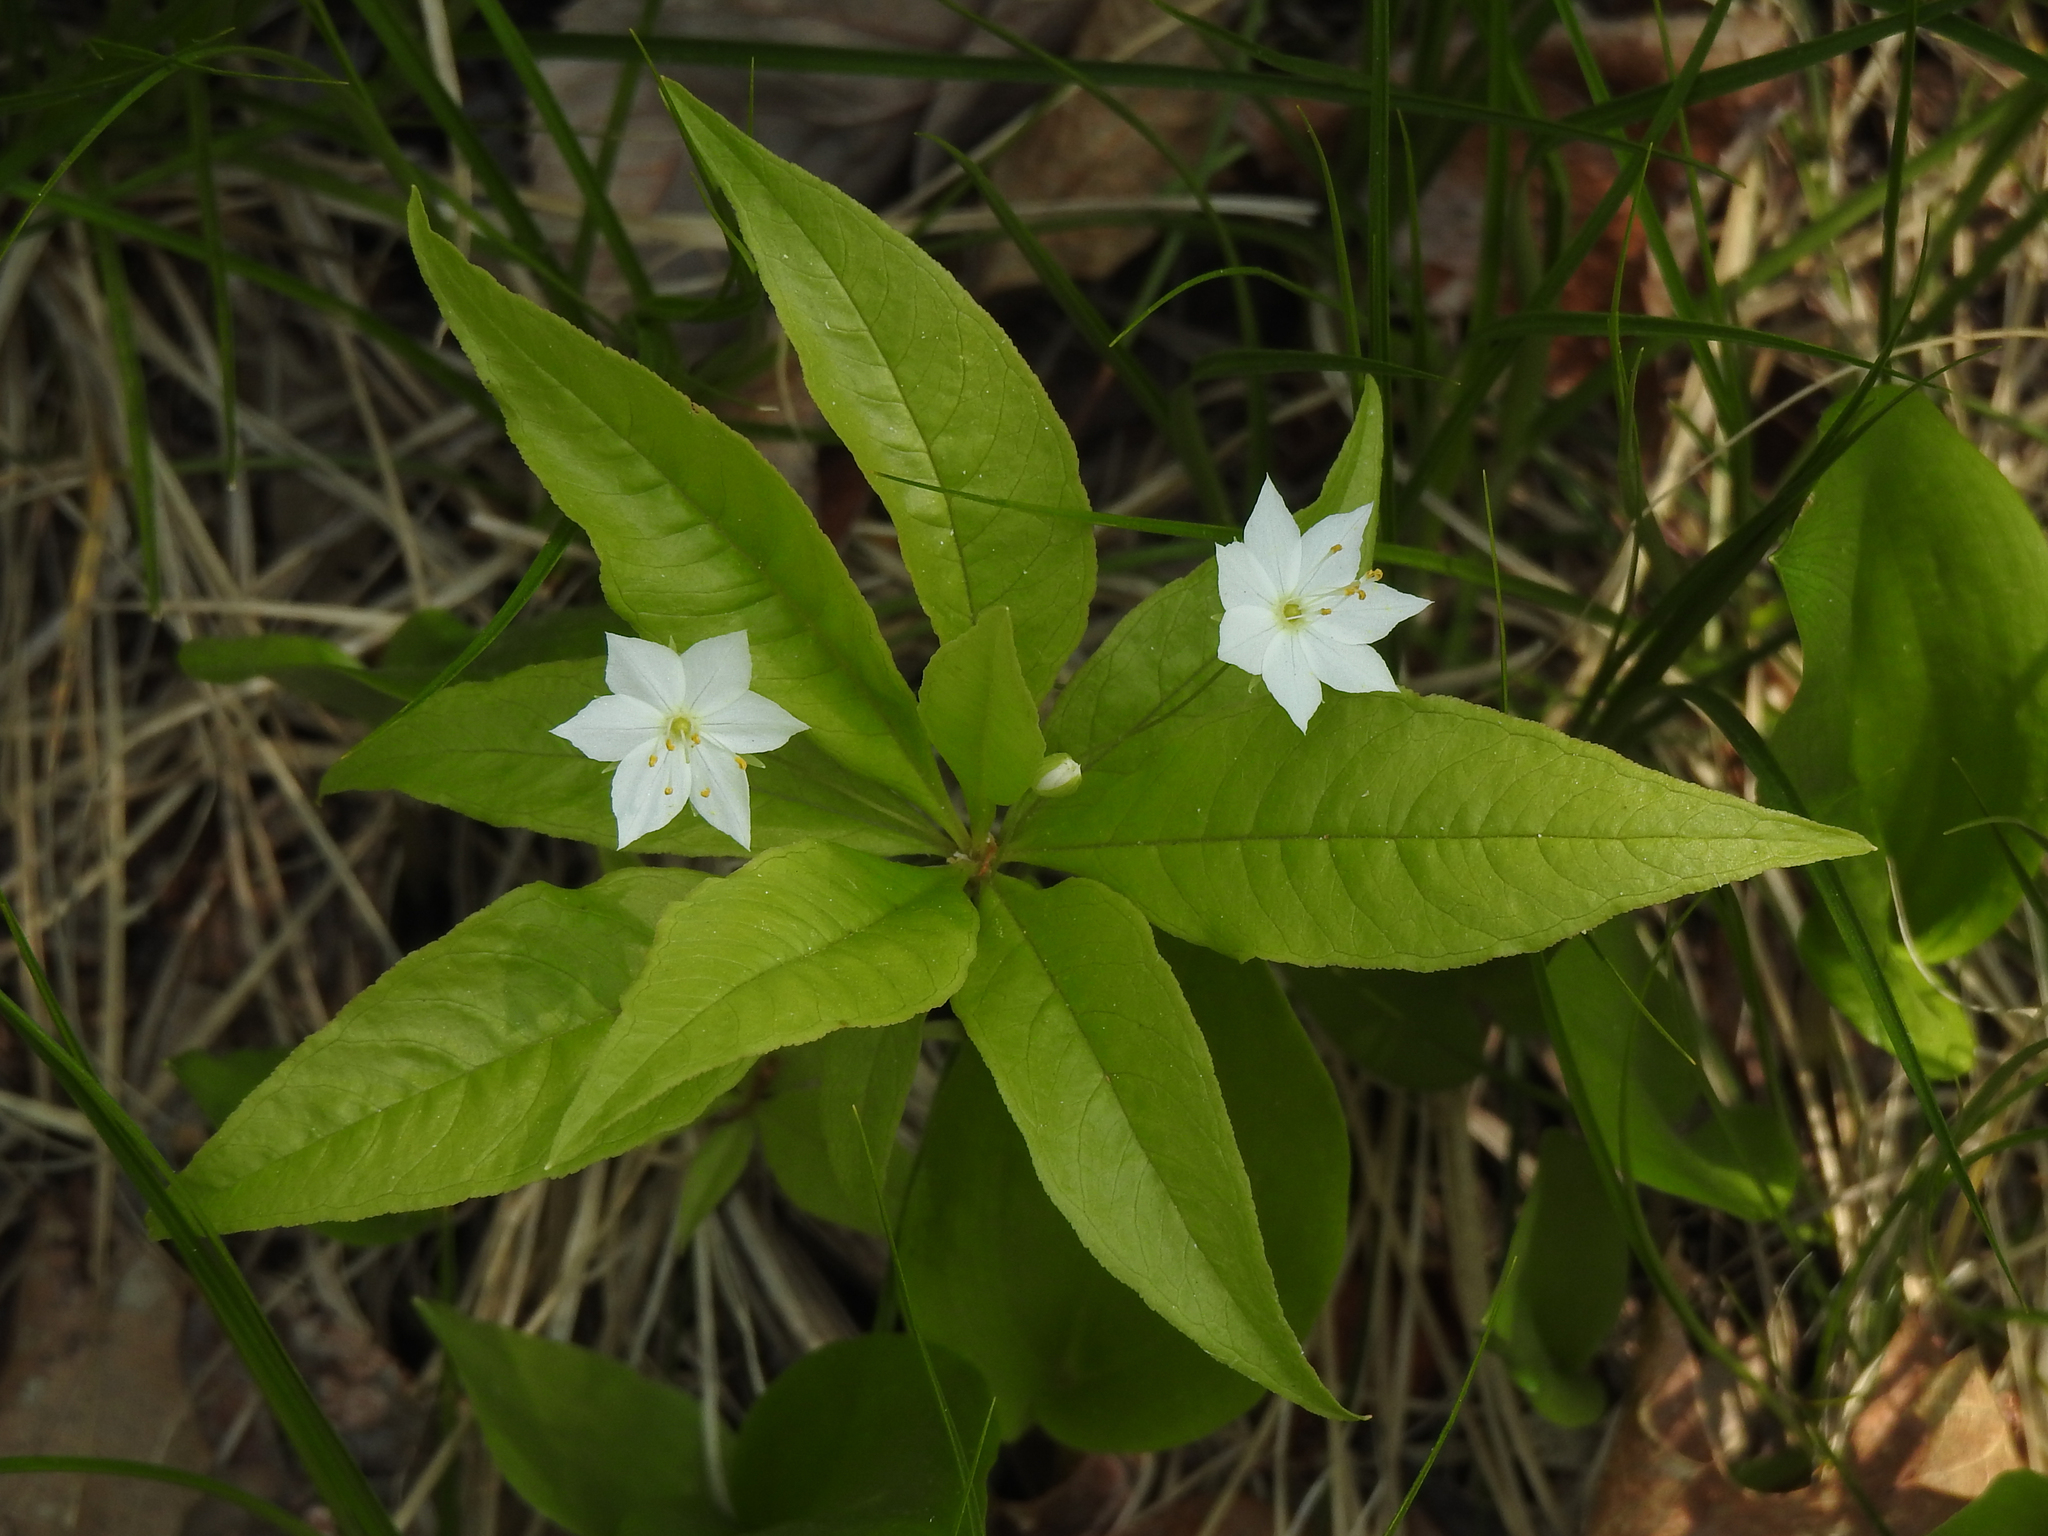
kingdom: Plantae
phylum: Tracheophyta
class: Magnoliopsida
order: Ericales
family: Primulaceae
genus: Lysimachia
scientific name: Lysimachia borealis
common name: American starflower
